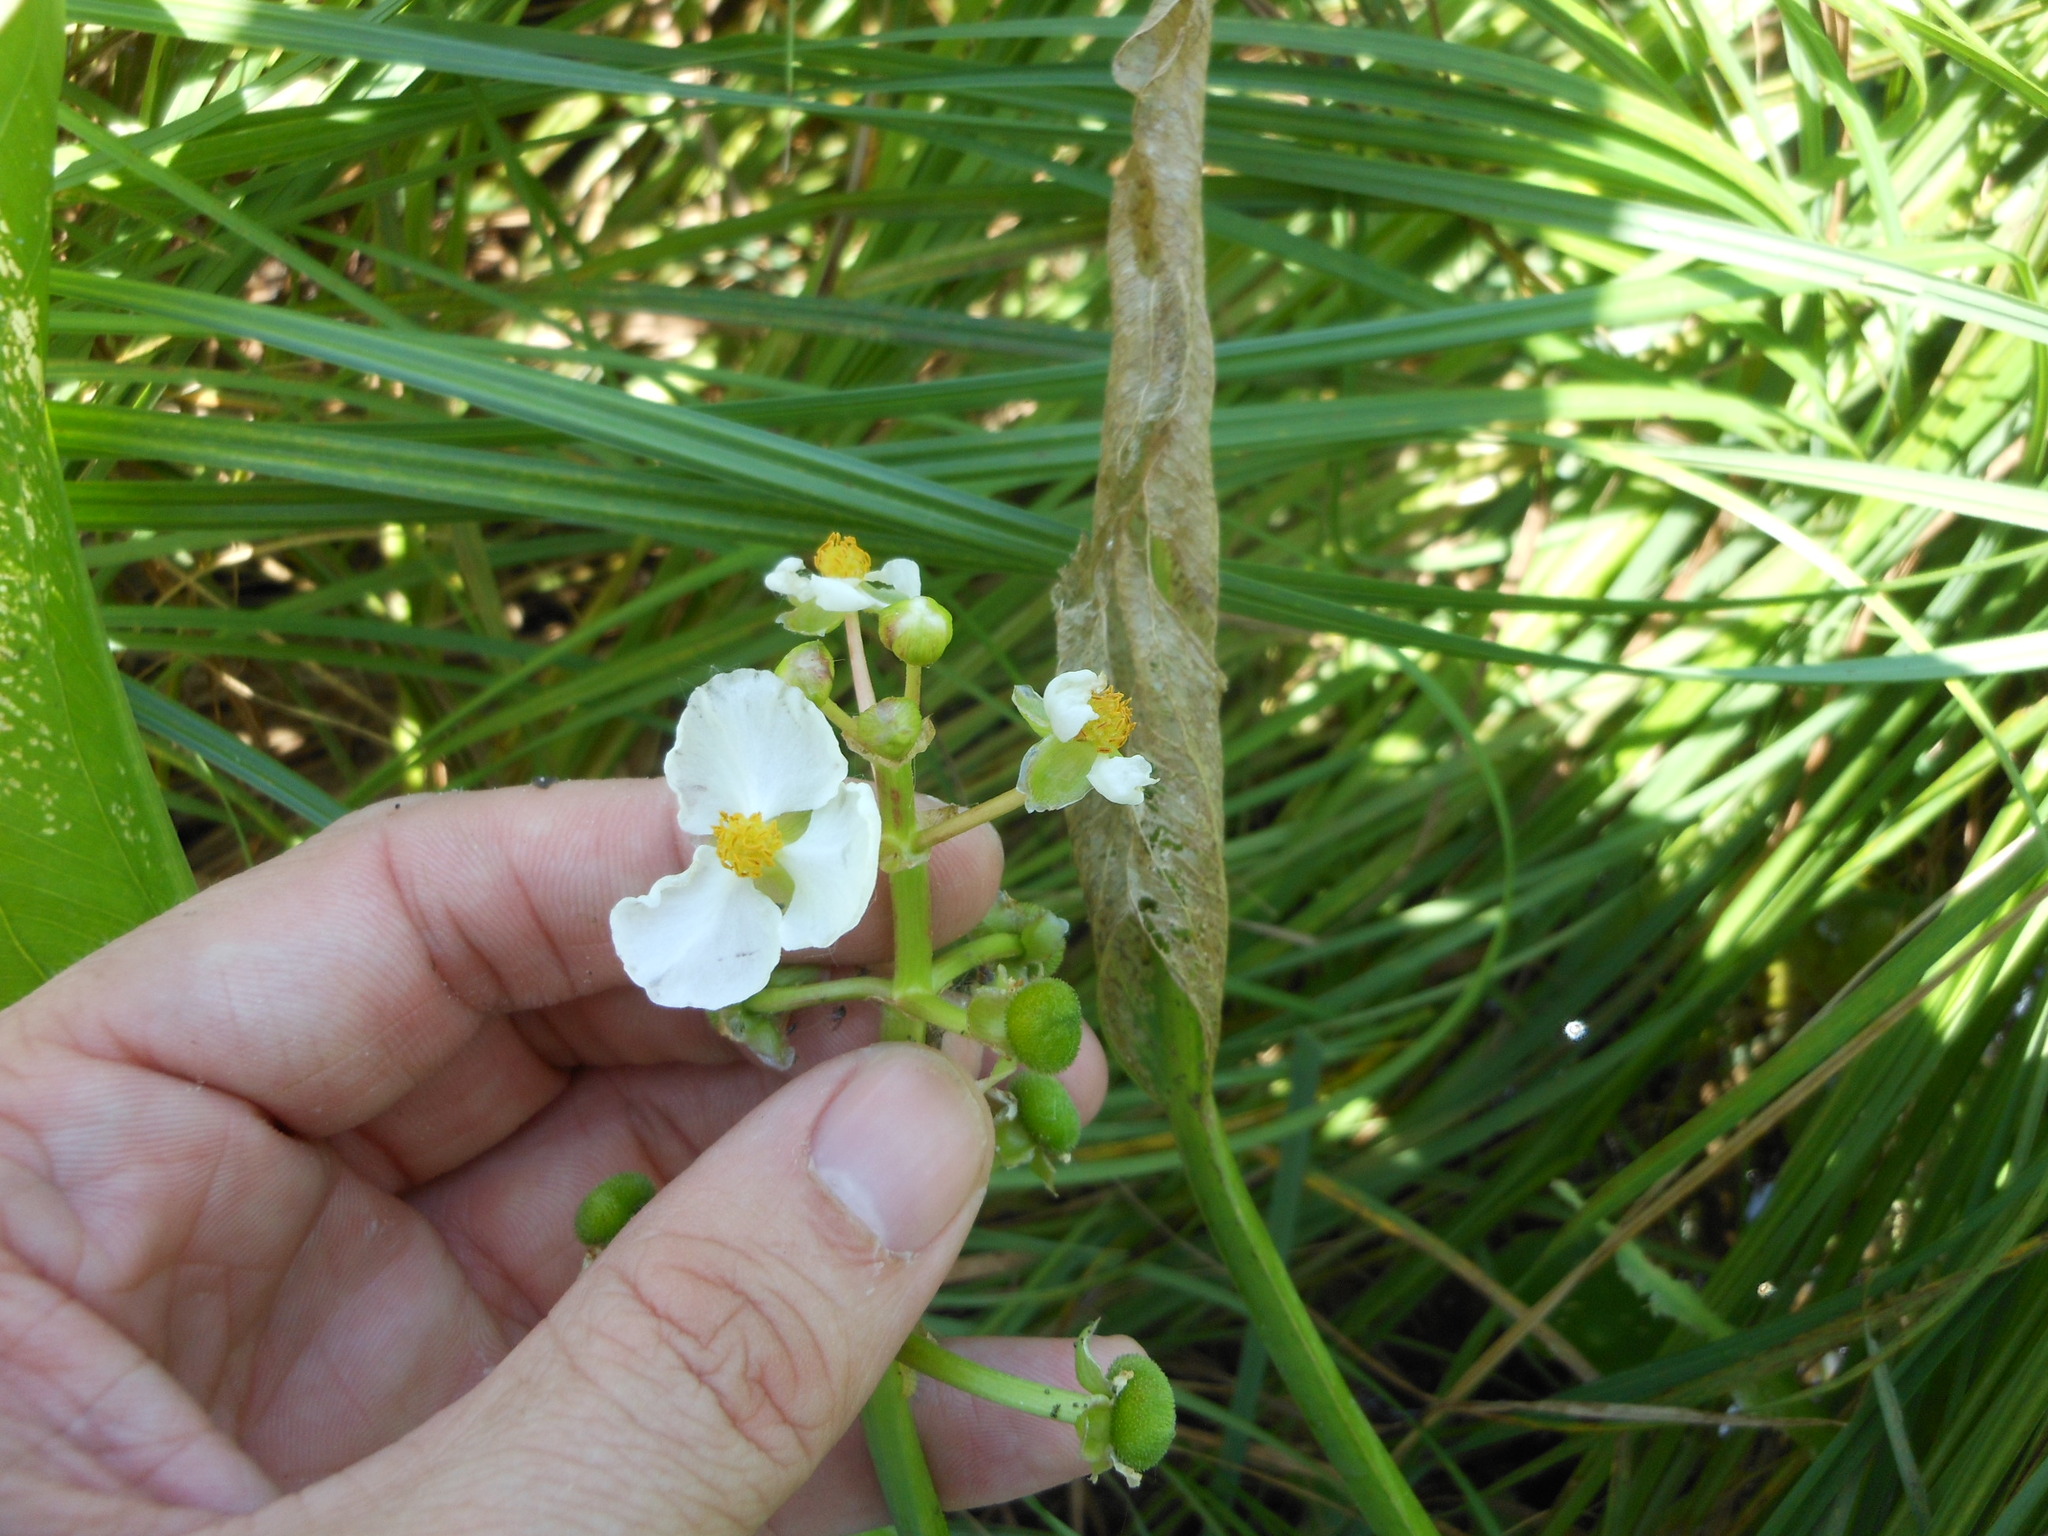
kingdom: Plantae
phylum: Tracheophyta
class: Liliopsida
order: Alismatales
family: Alismataceae
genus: Sagittaria
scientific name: Sagittaria platyphylla
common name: Broad-leaf arrowhead
